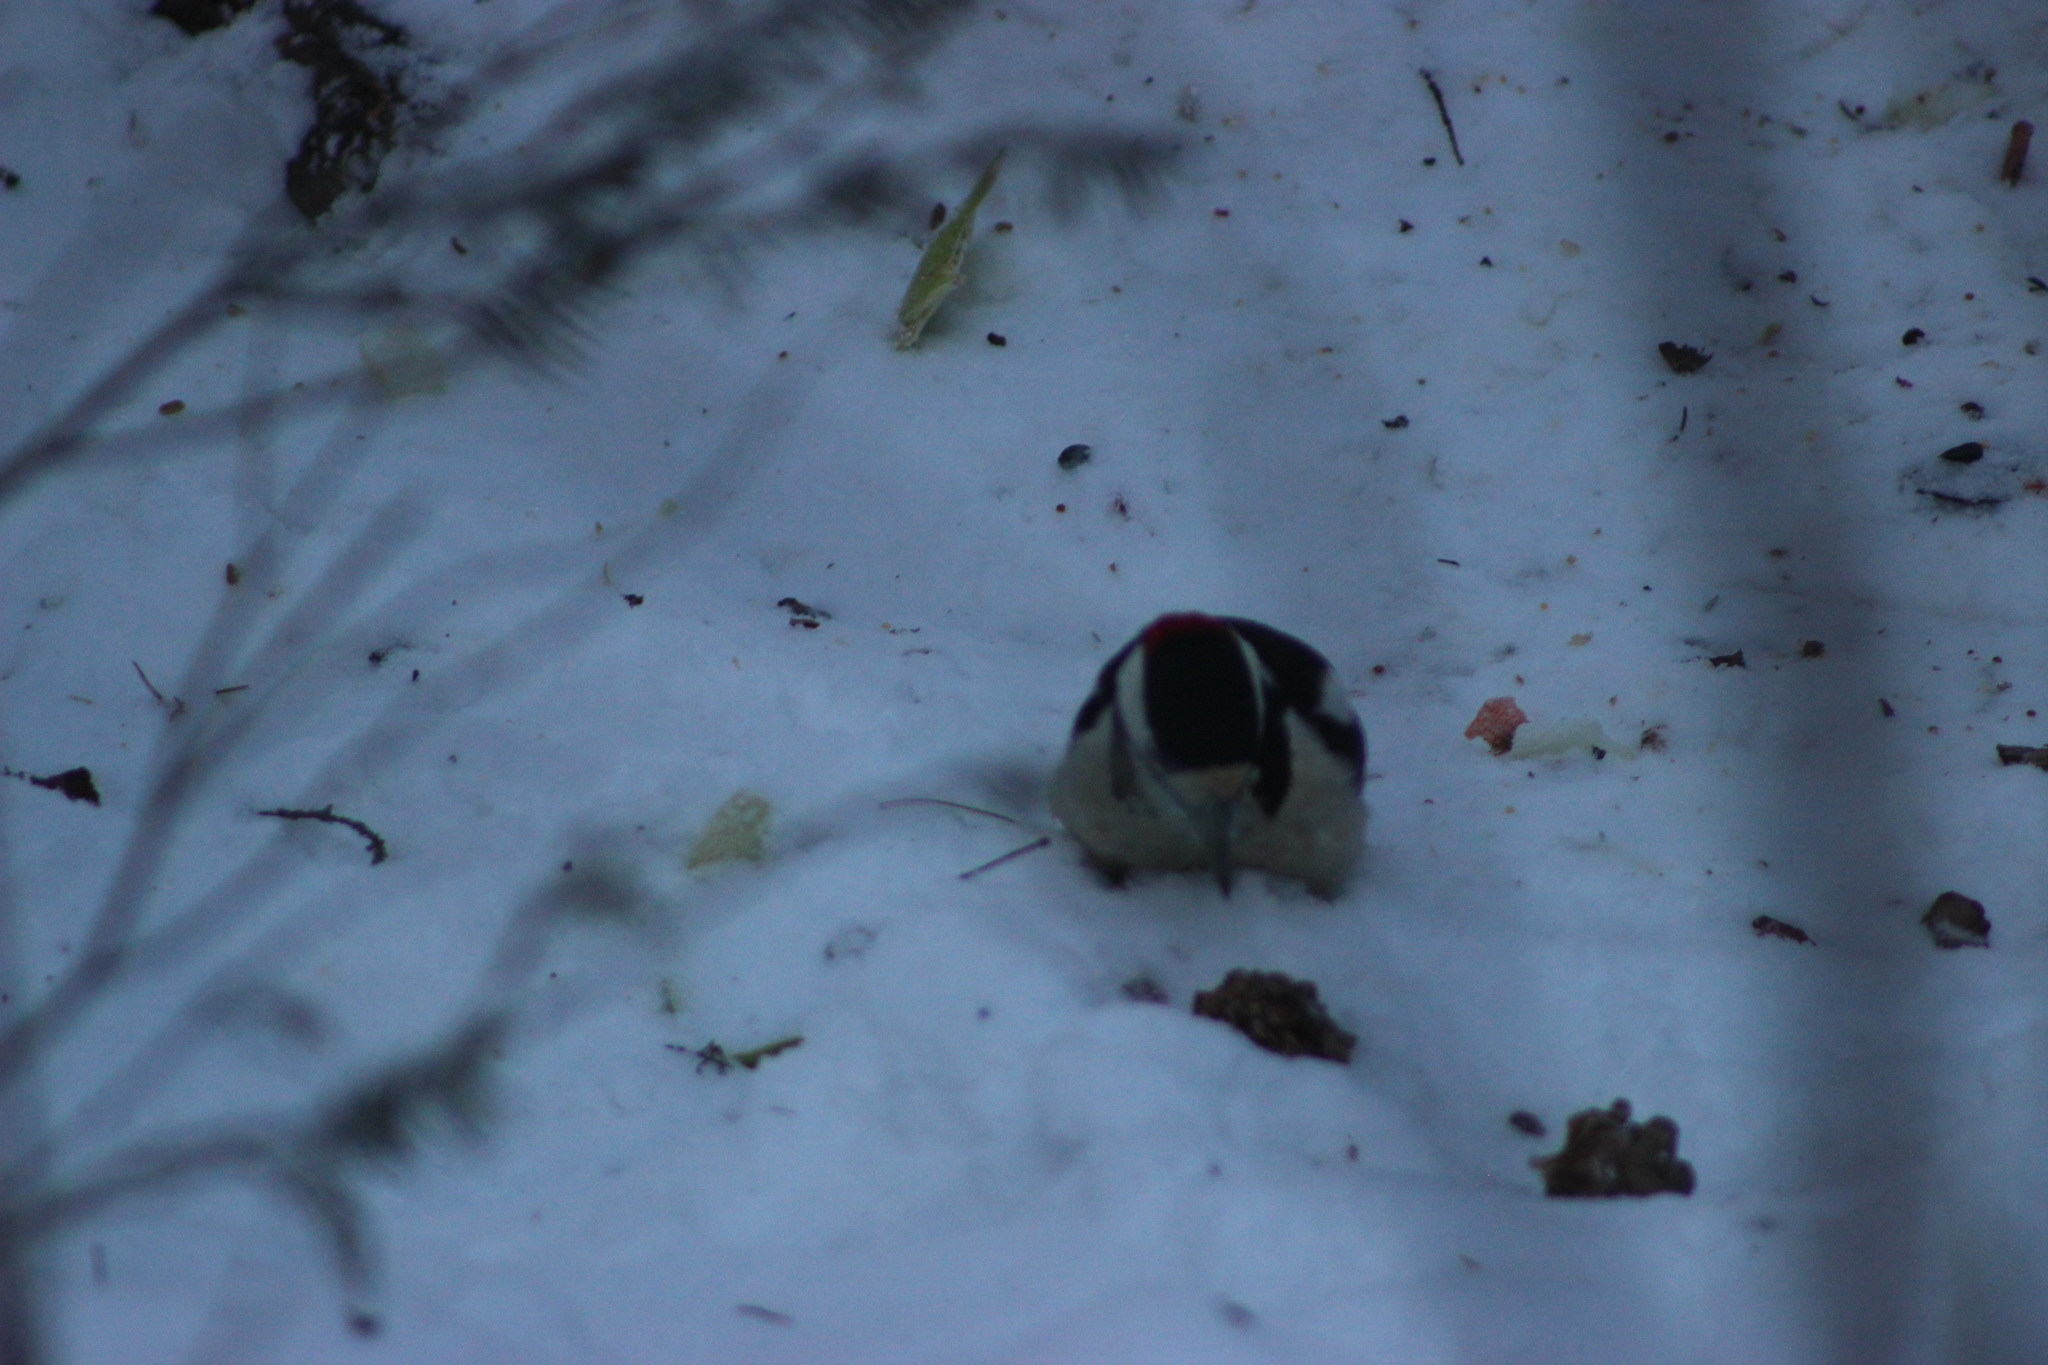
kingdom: Animalia
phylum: Chordata
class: Aves
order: Piciformes
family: Picidae
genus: Dendrocopos
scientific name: Dendrocopos major
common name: Great spotted woodpecker
